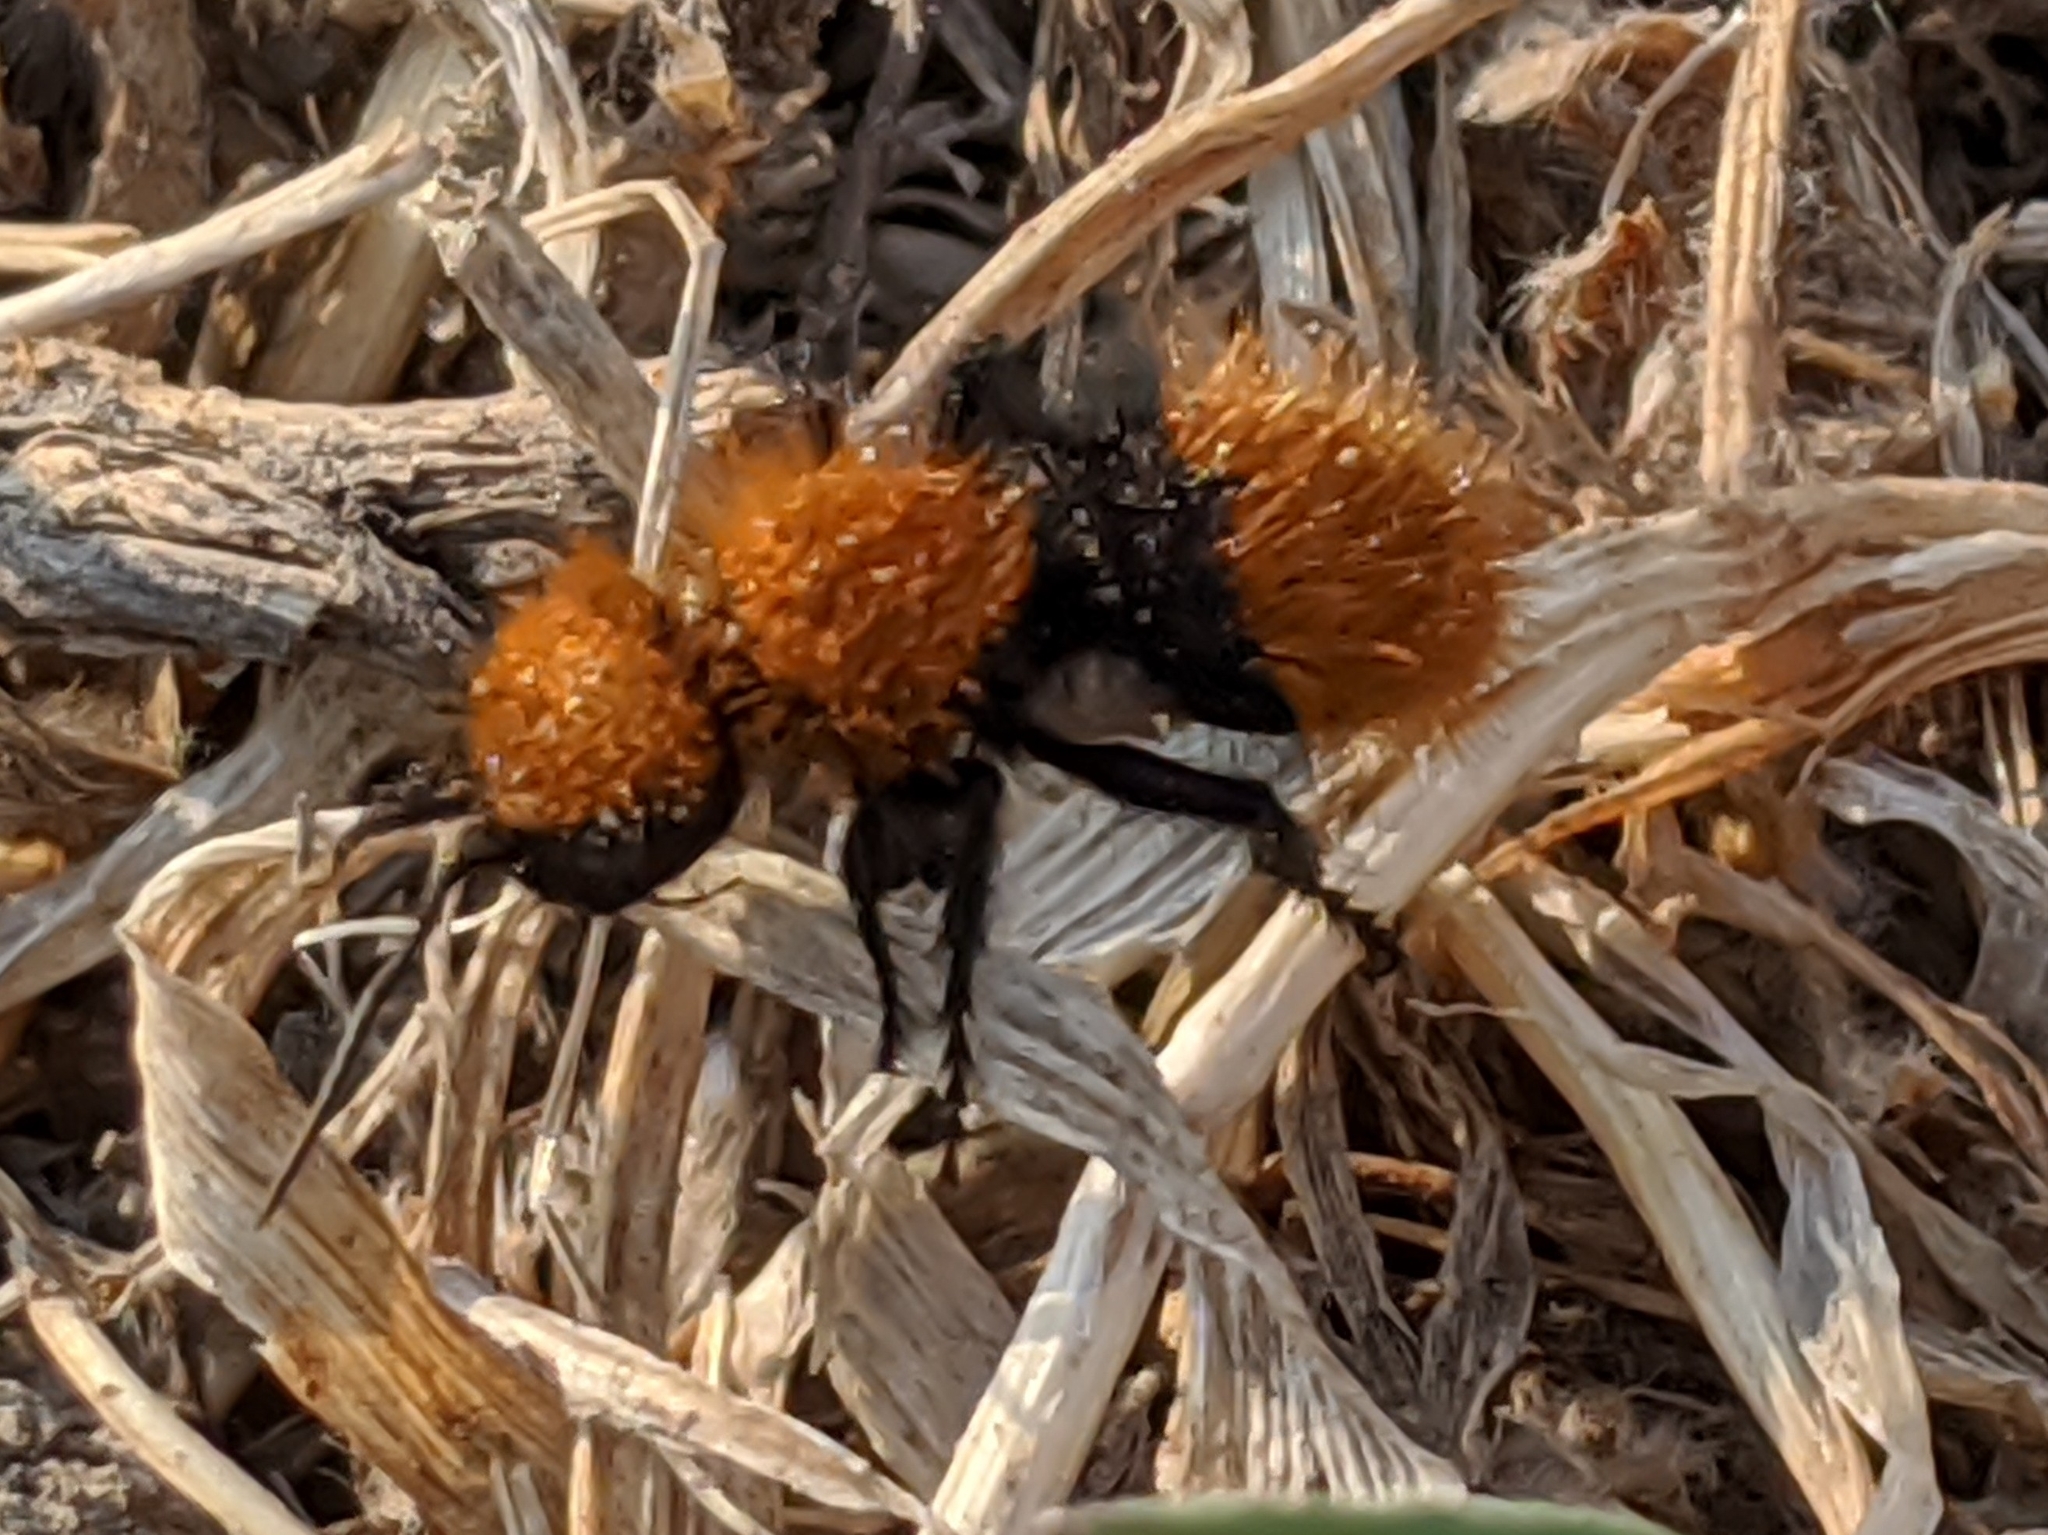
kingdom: Animalia
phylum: Arthropoda
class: Insecta
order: Hymenoptera
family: Mutillidae
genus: Dasymutilla
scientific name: Dasymutilla
